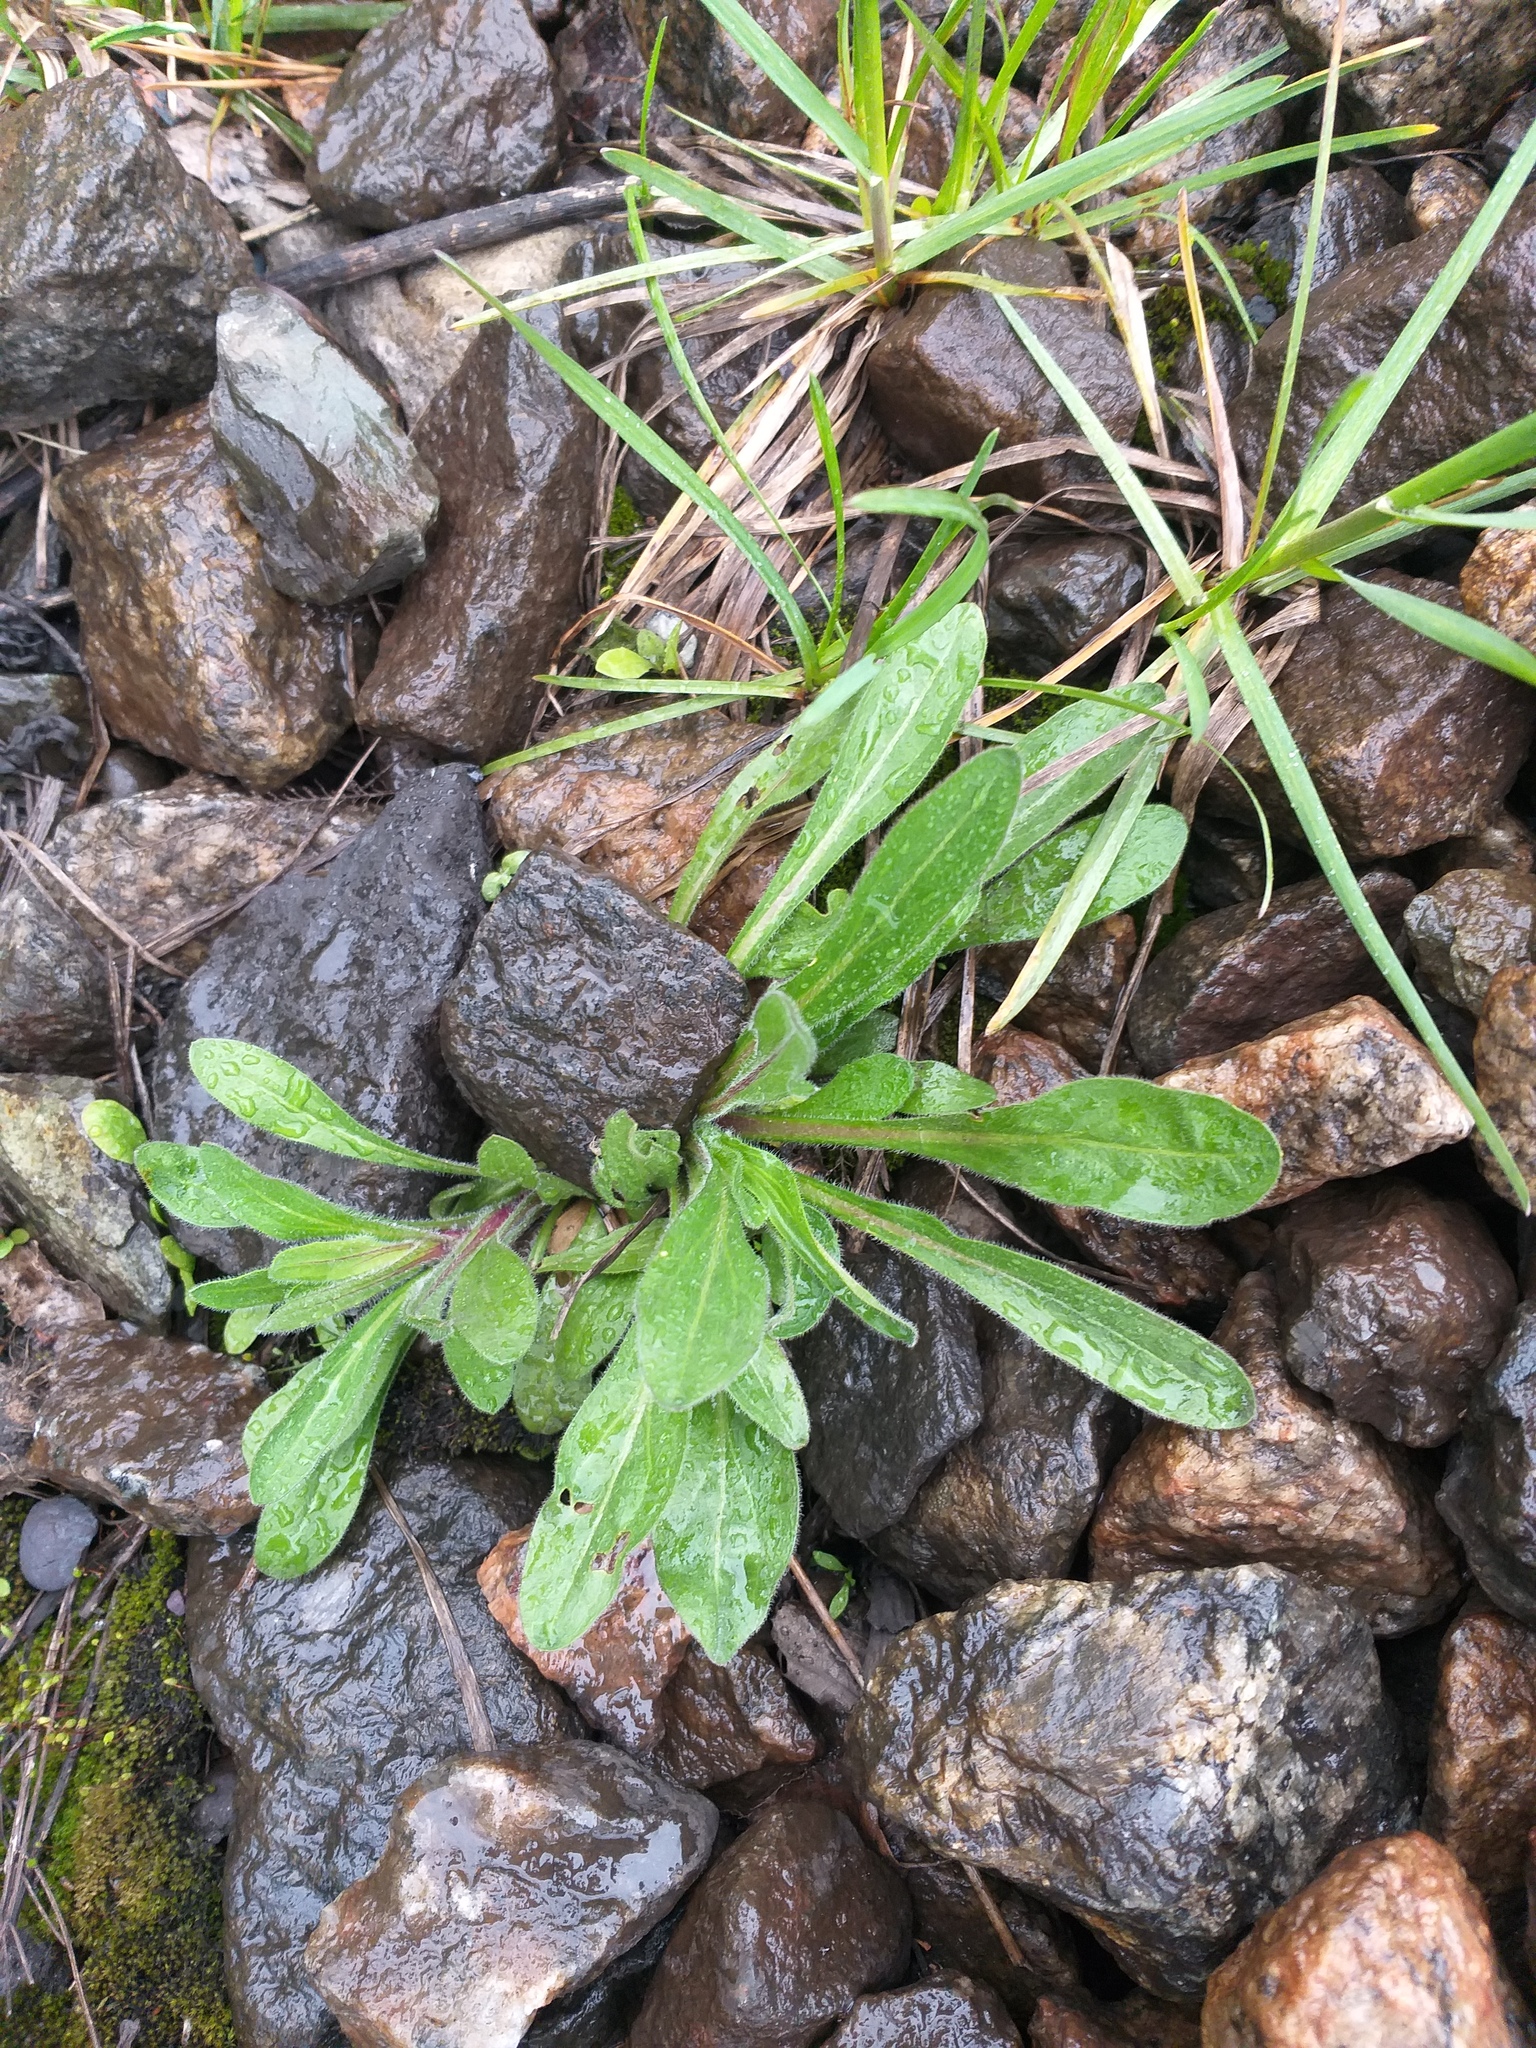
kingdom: Plantae
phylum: Tracheophyta
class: Magnoliopsida
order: Asterales
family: Asteraceae
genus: Erigeron
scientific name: Erigeron acris
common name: Blue fleabane
